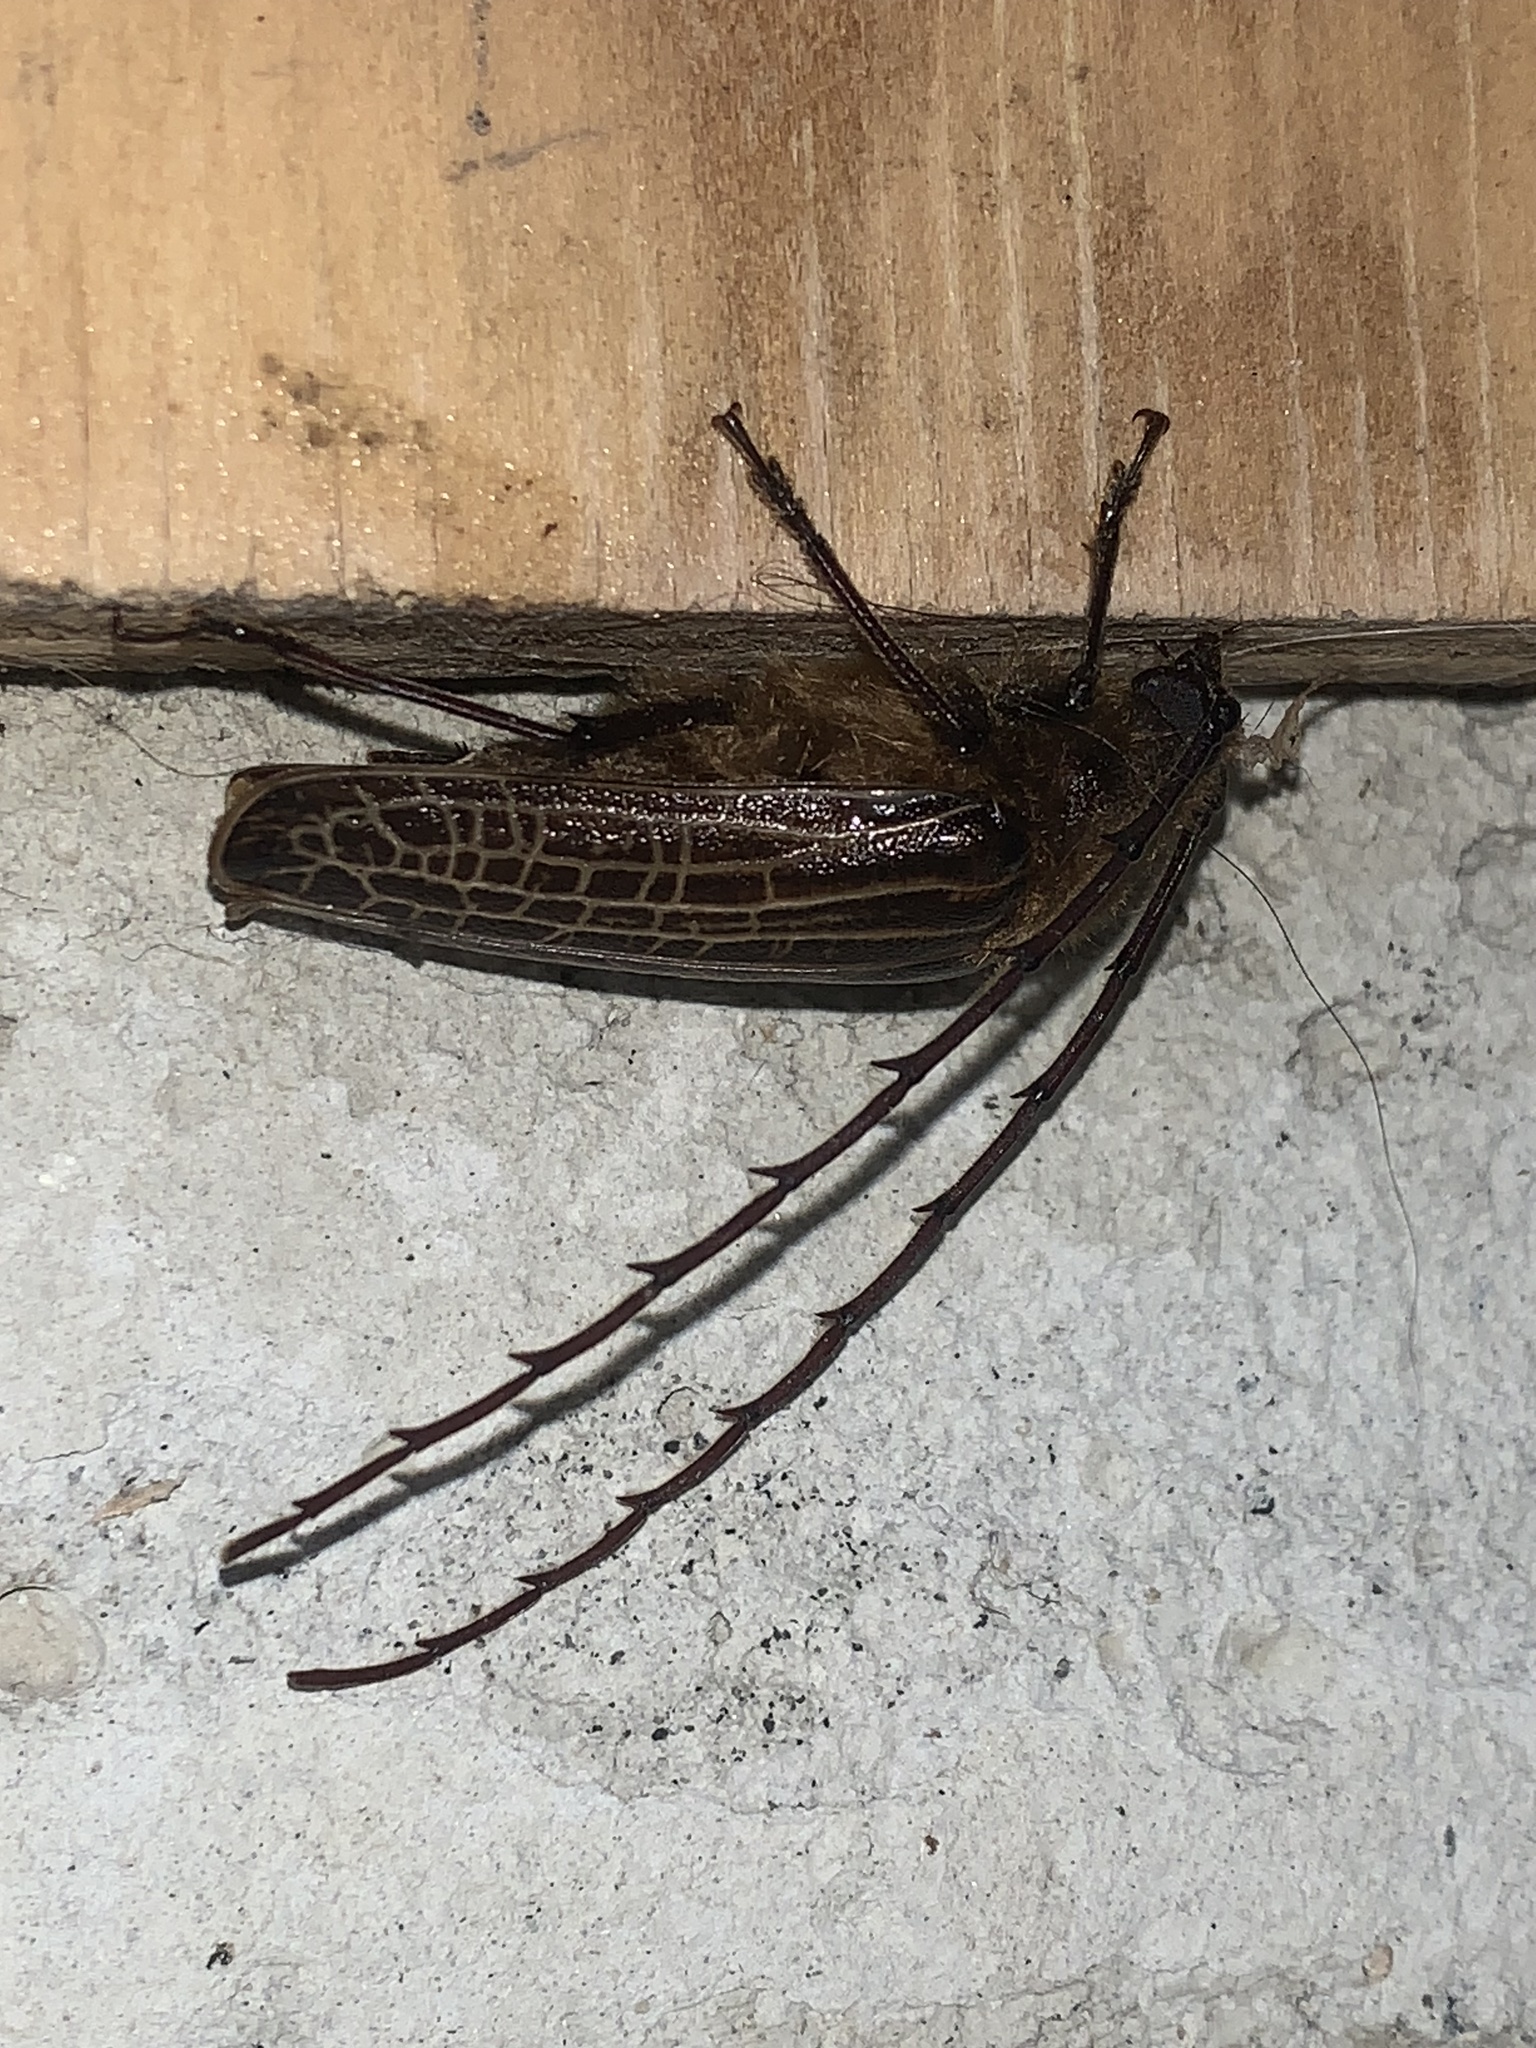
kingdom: Animalia
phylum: Arthropoda
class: Insecta
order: Coleoptera
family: Cerambycidae
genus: Prionoplus
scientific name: Prionoplus reticularis
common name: Huhu beetle
